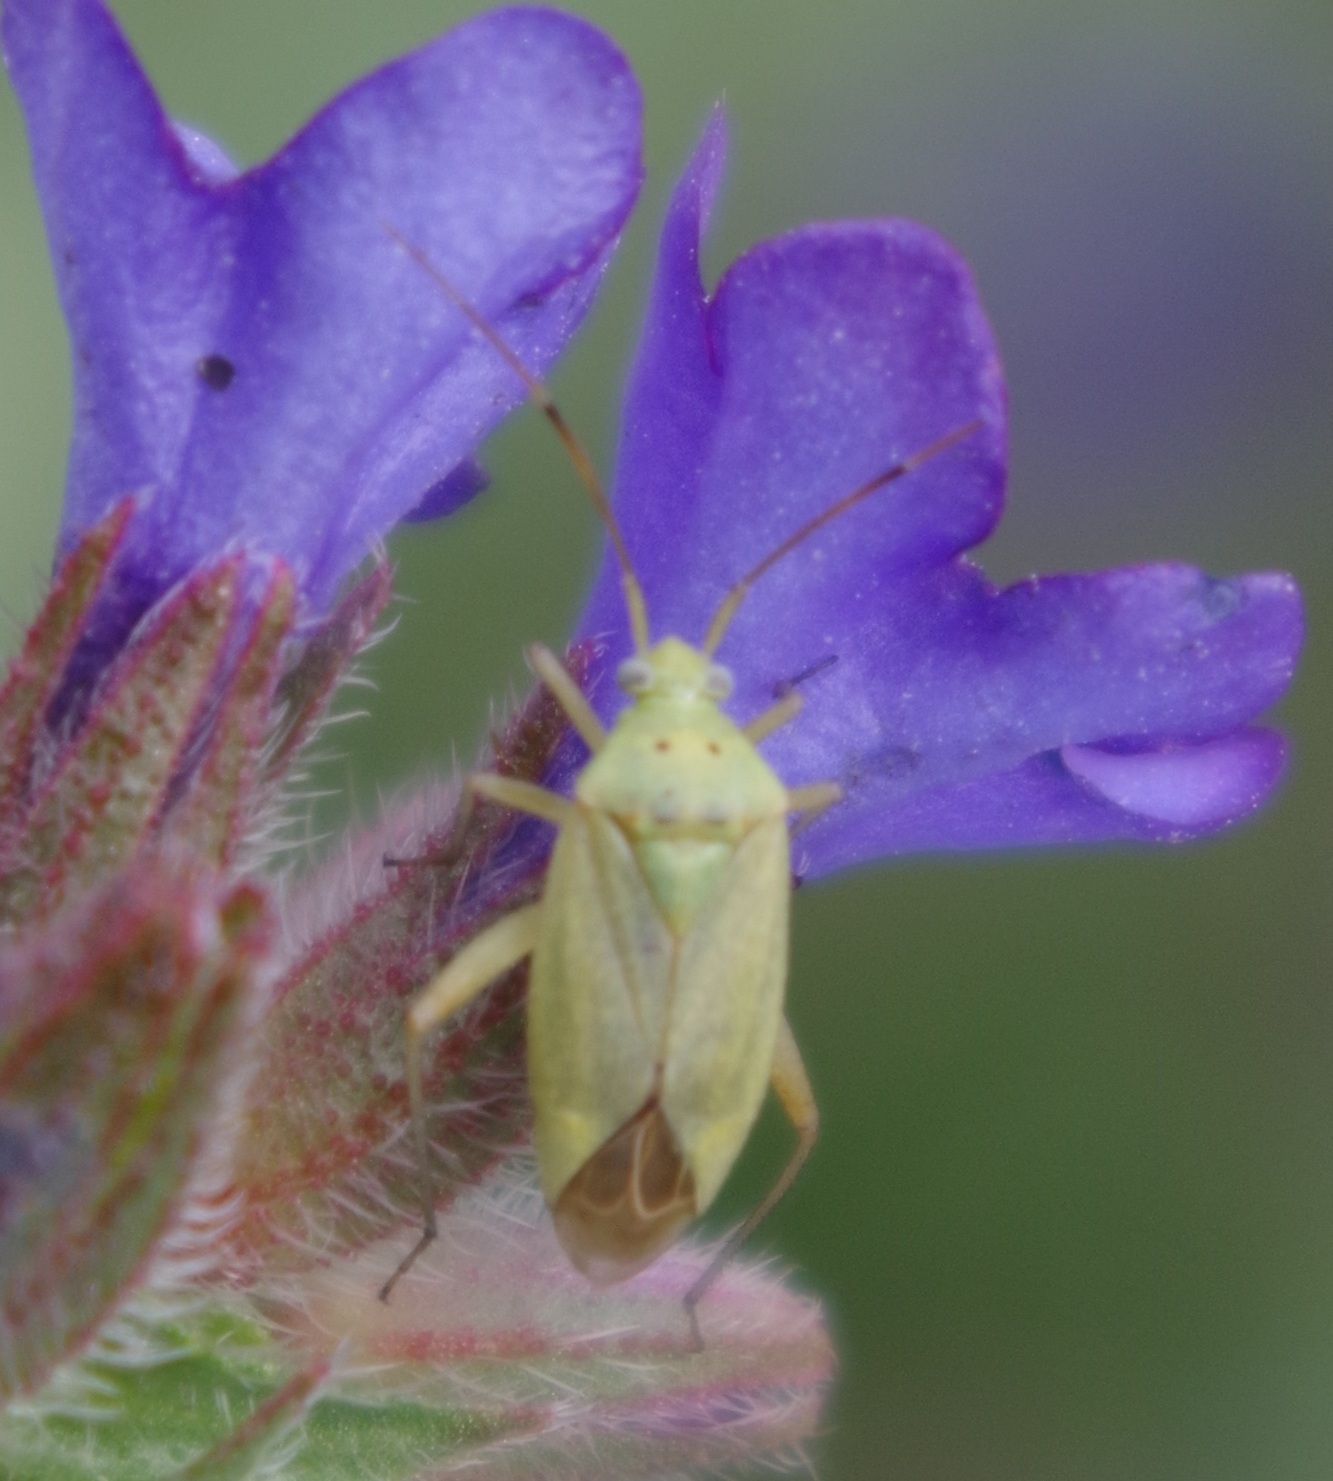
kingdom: Animalia
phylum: Arthropoda
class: Insecta
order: Hemiptera
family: Miridae
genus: Closterotomus
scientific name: Closterotomus norvegicus
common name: Plant bug
